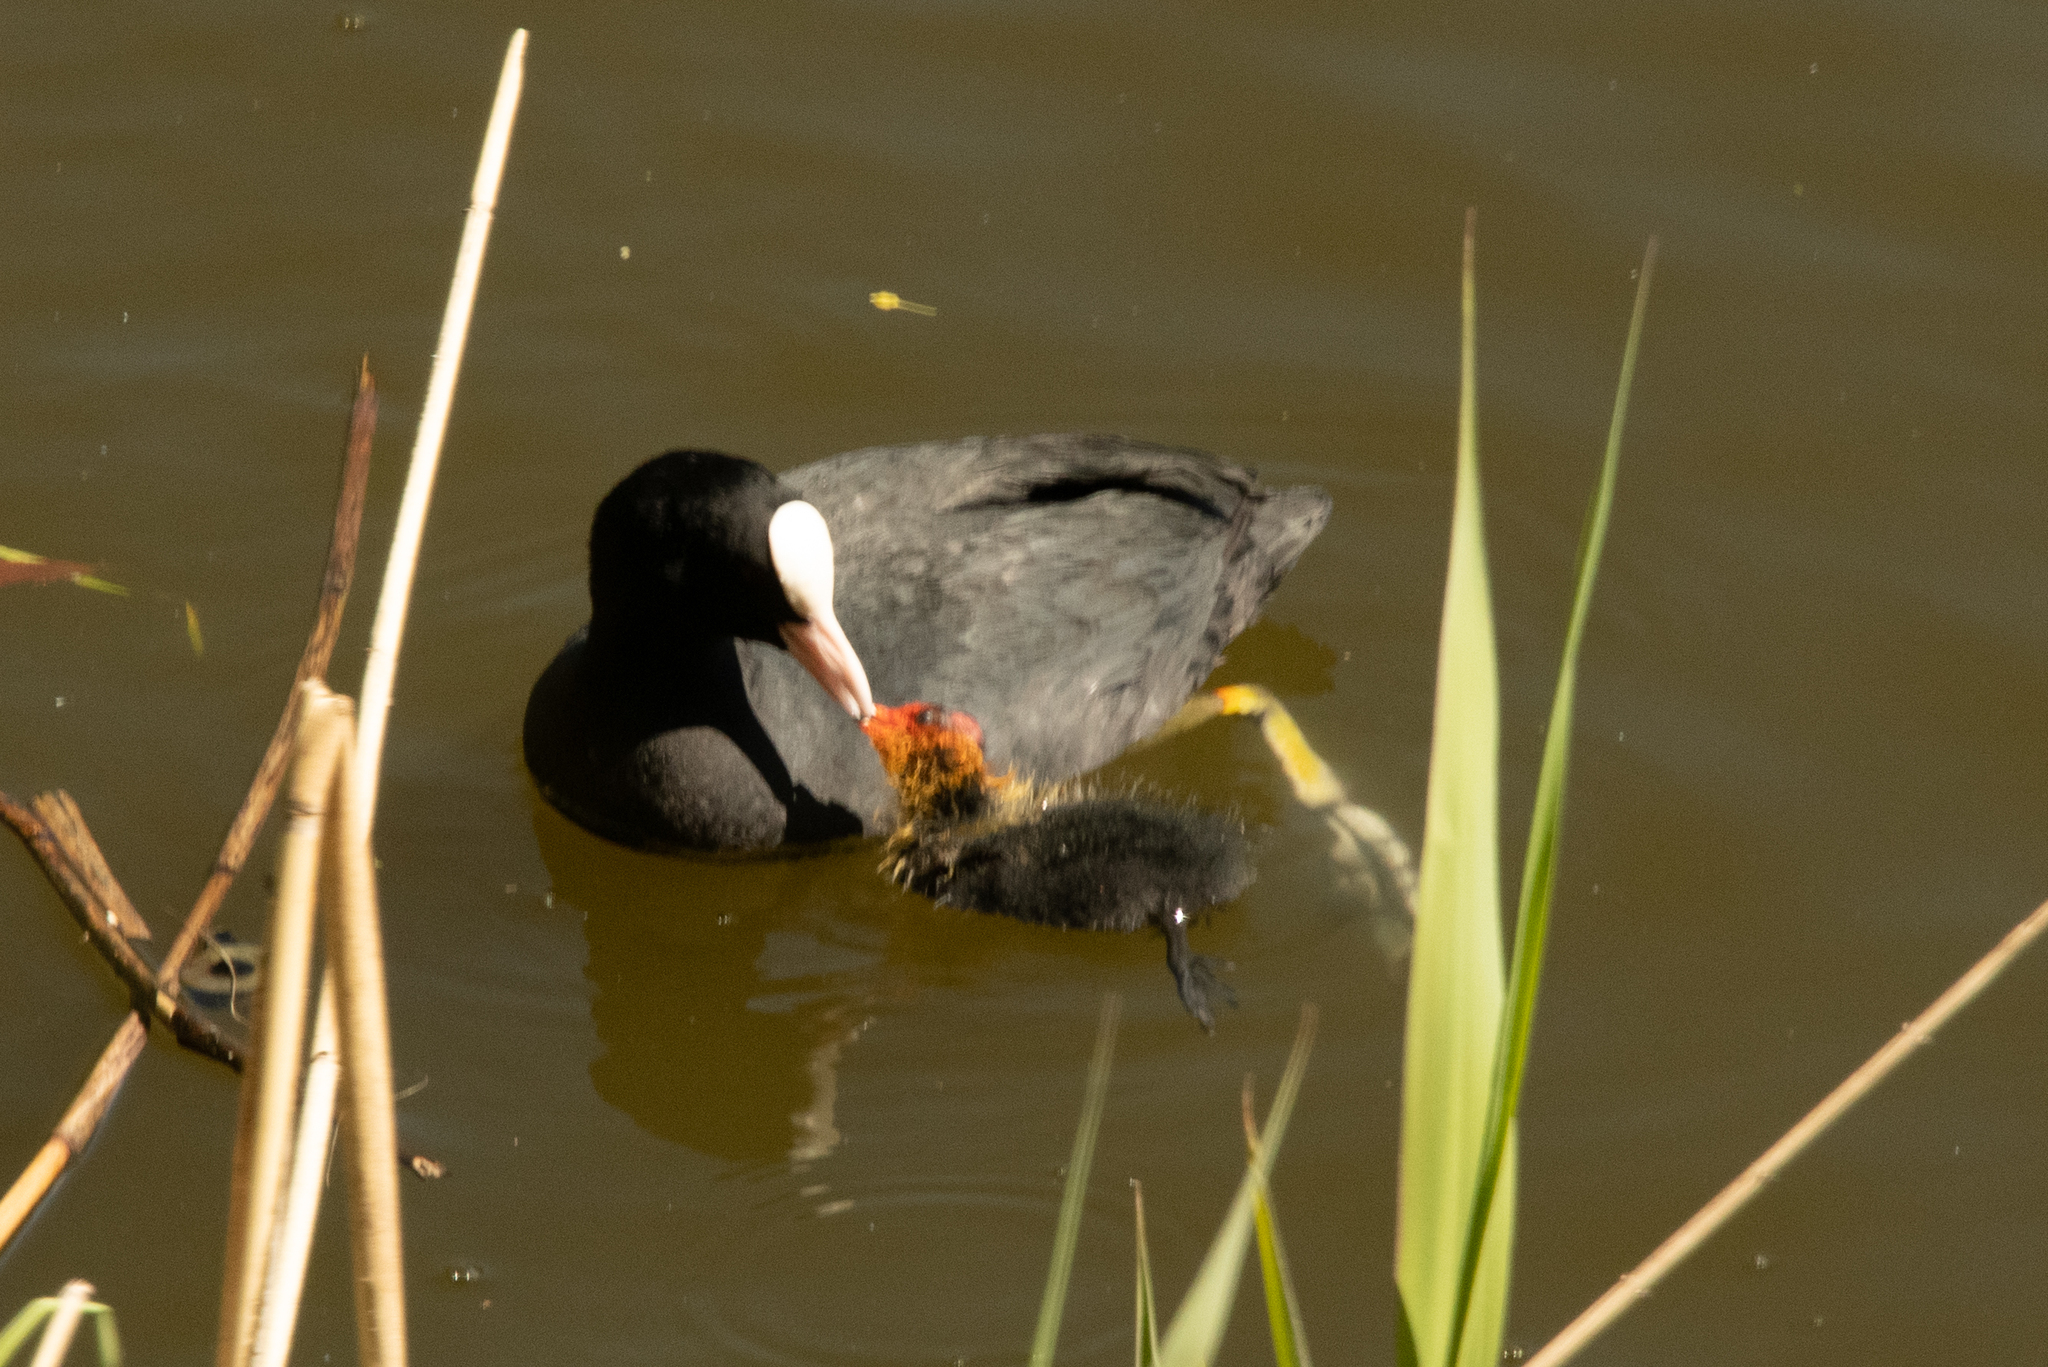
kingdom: Animalia
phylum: Chordata
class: Aves
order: Gruiformes
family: Rallidae
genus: Fulica
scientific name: Fulica atra
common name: Eurasian coot
